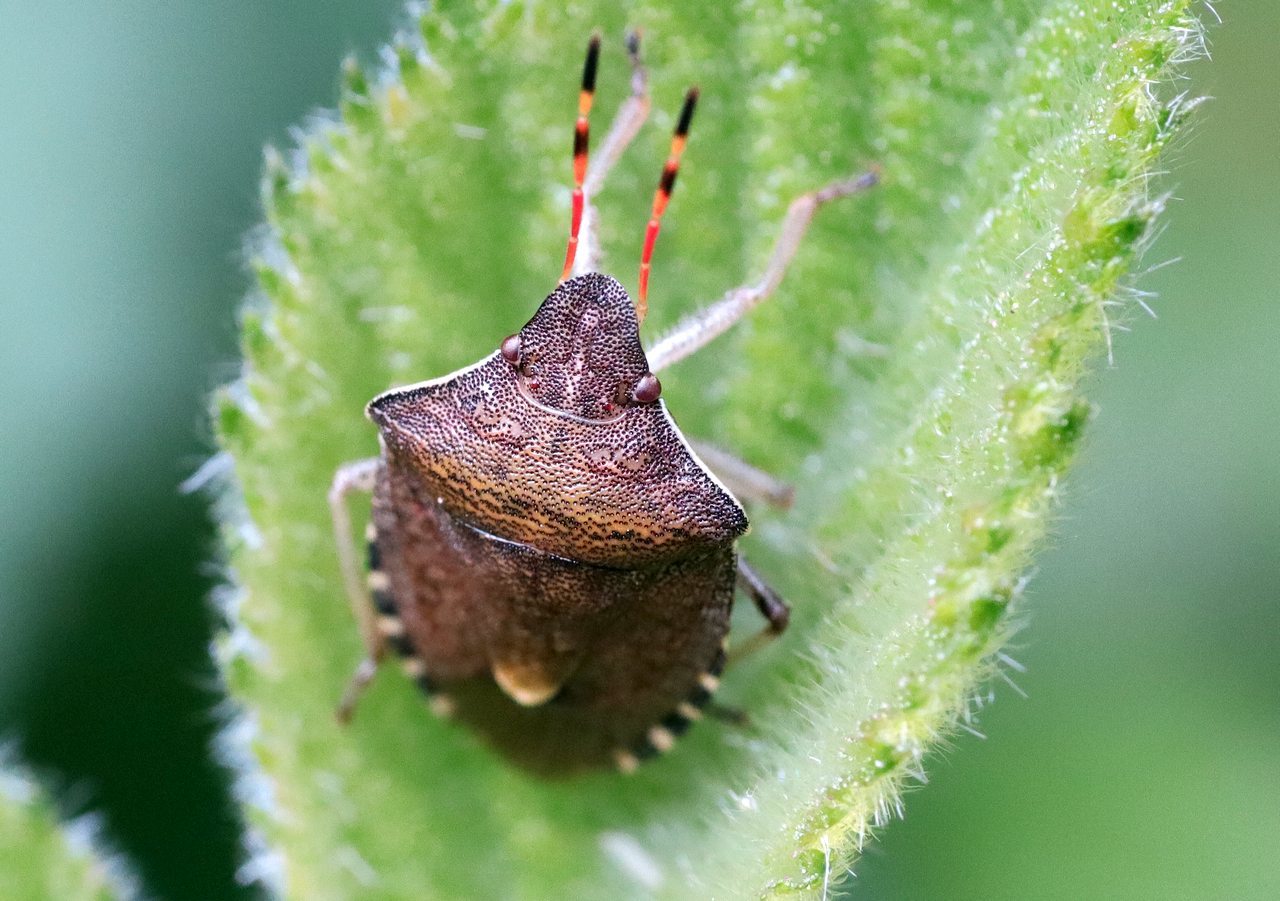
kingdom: Animalia
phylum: Arthropoda
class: Insecta
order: Hemiptera
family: Pentatomidae
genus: Holcostethus
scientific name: Holcostethus strictus
